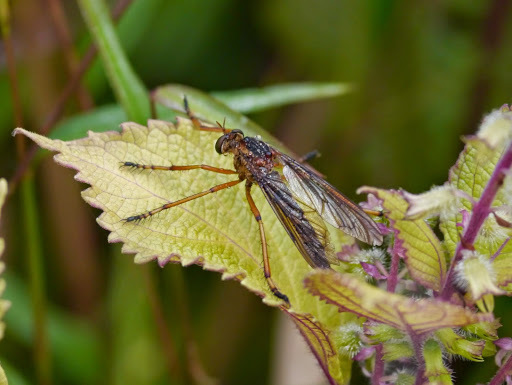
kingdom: Animalia
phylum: Arthropoda
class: Insecta
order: Diptera
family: Asilidae
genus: Diogmites
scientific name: Diogmites discolor
